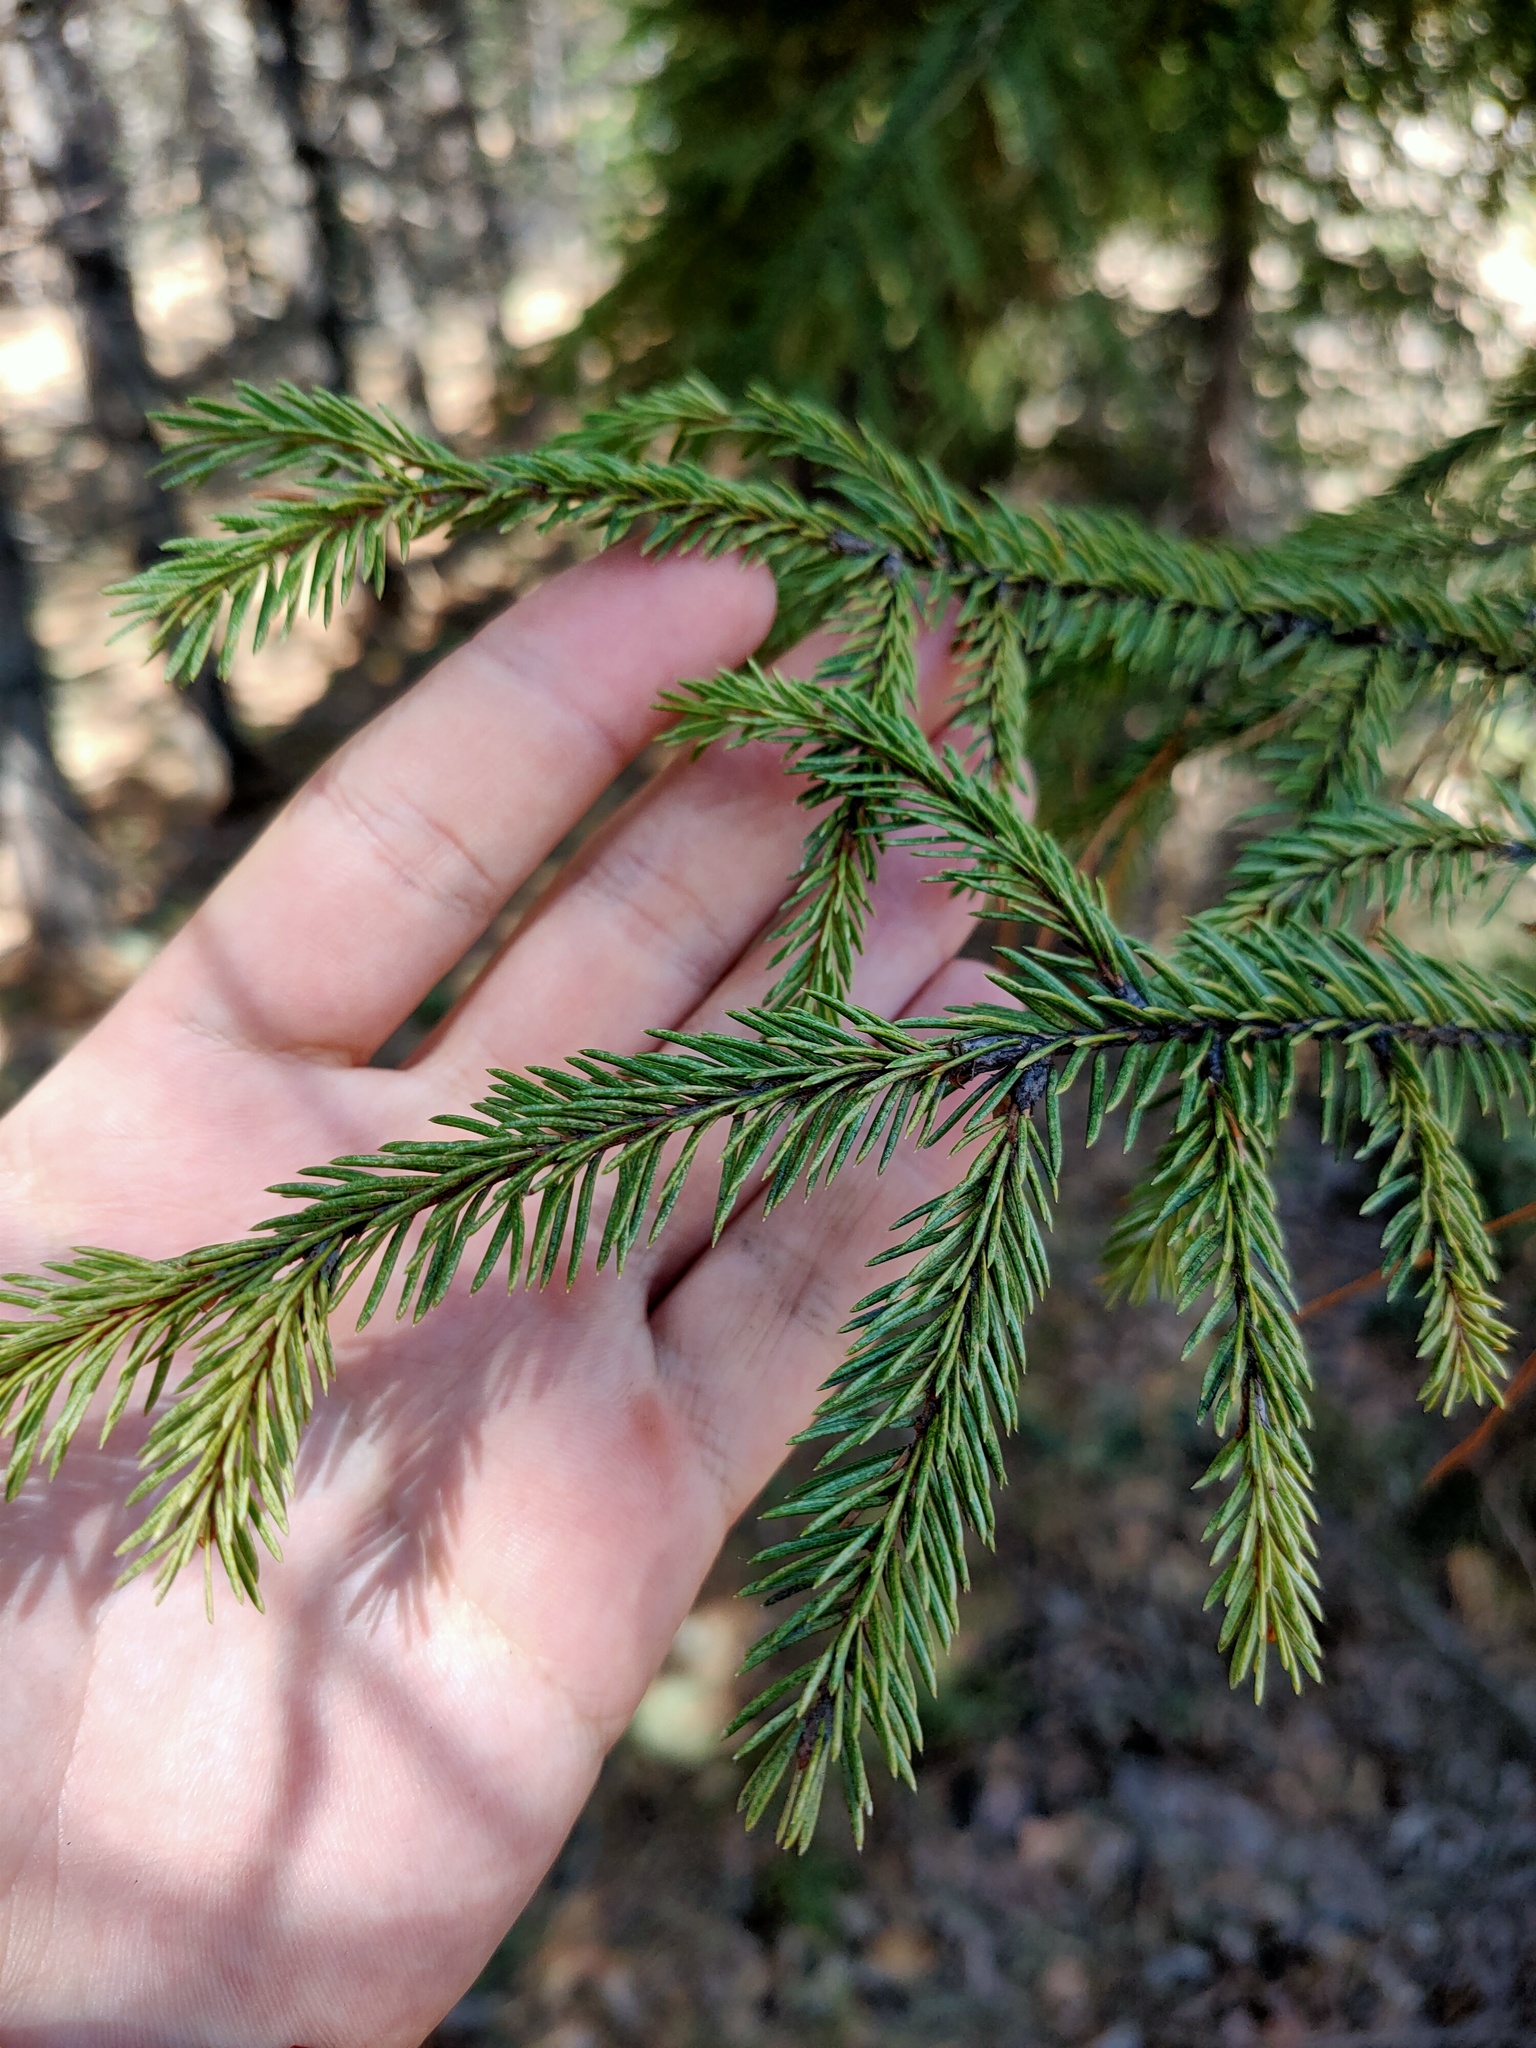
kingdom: Plantae
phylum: Tracheophyta
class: Pinopsida
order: Pinales
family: Pinaceae
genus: Picea
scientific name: Picea
